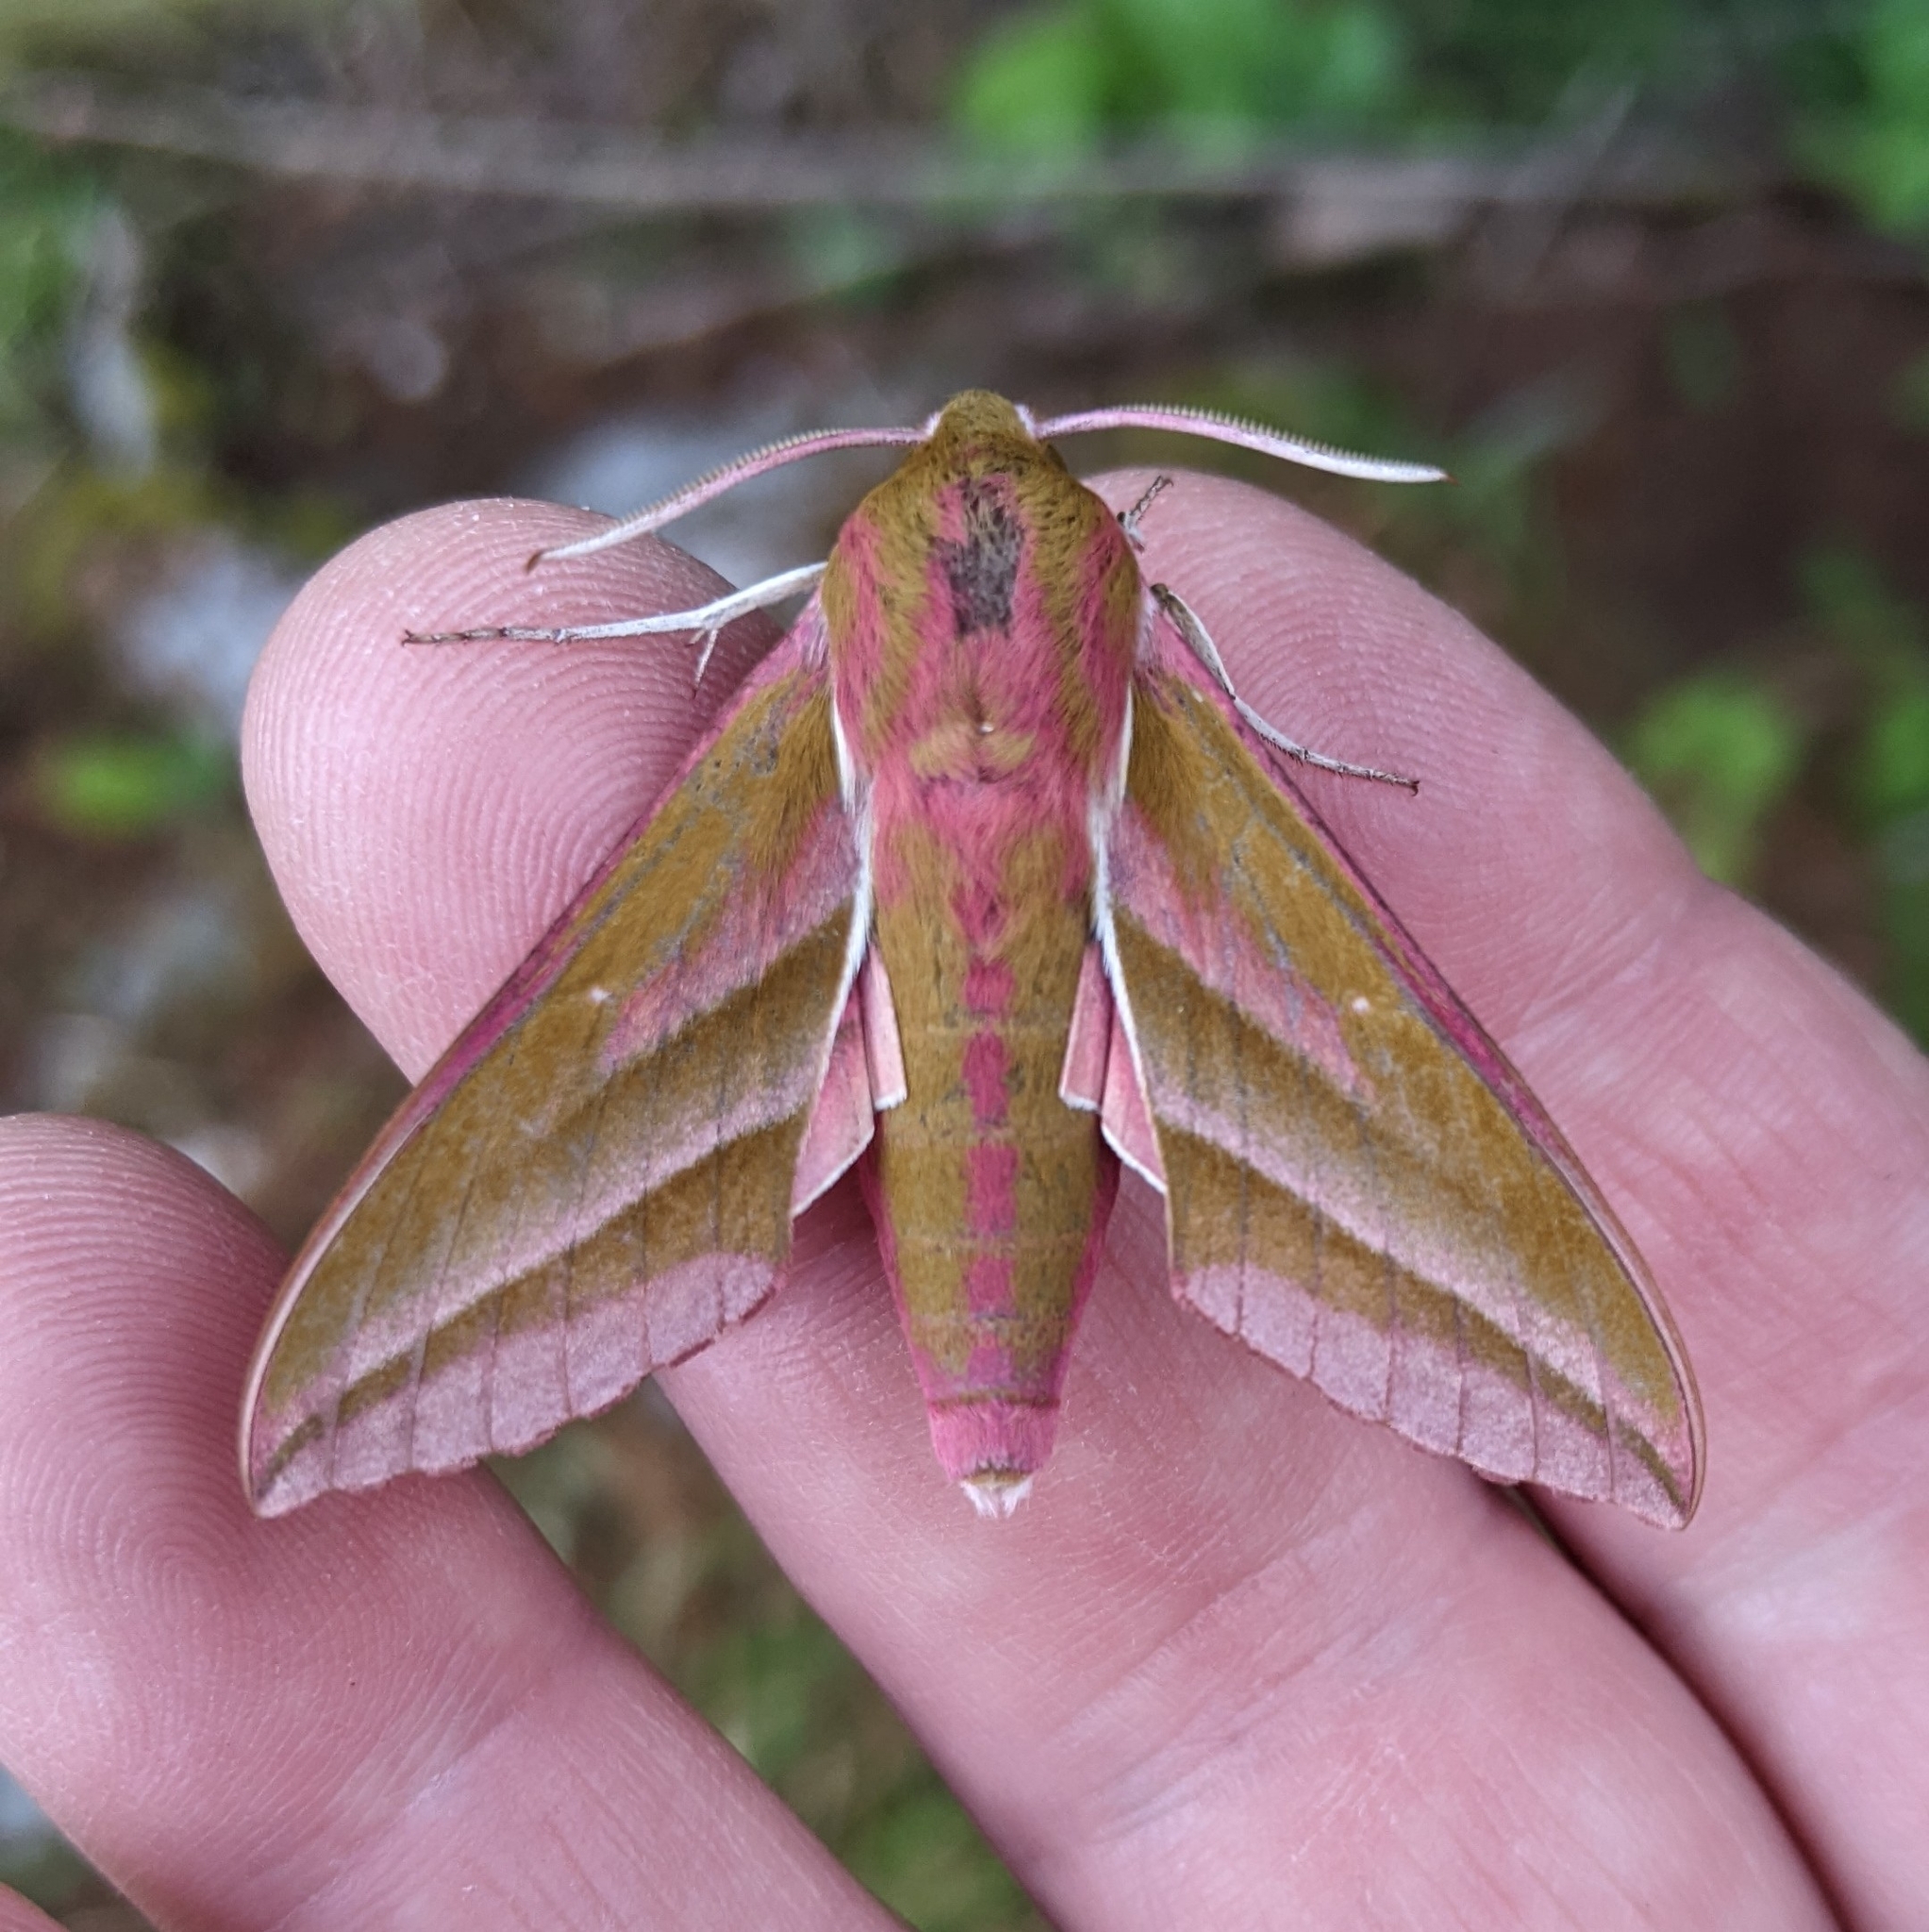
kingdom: Animalia
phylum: Arthropoda
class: Insecta
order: Lepidoptera
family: Sphingidae
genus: Deilephila
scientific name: Deilephila elpenor
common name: Elephant hawk-moth
